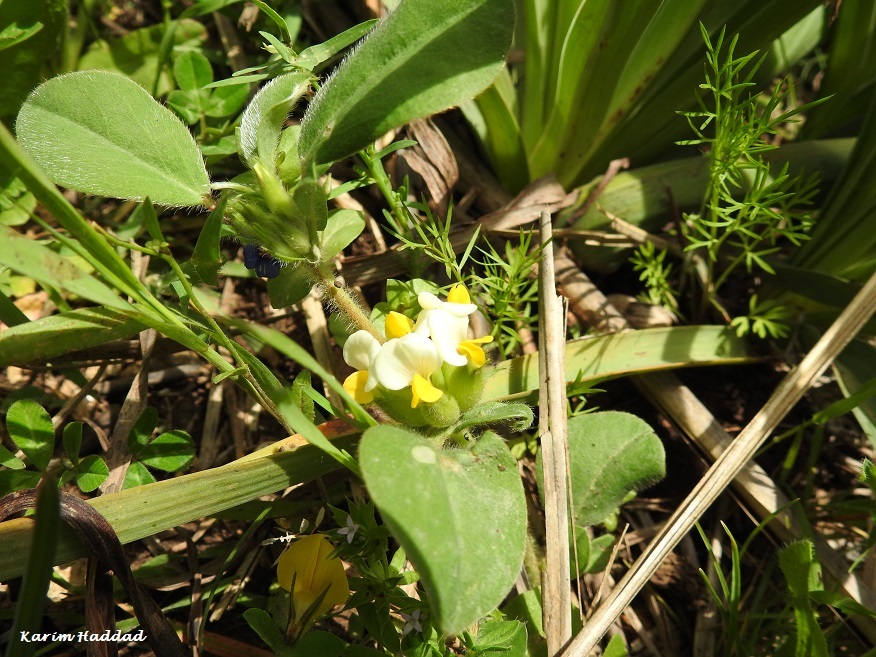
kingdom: Plantae
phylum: Tracheophyta
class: Magnoliopsida
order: Fabales
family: Fabaceae
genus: Tripodion
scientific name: Tripodion tetraphyllum
